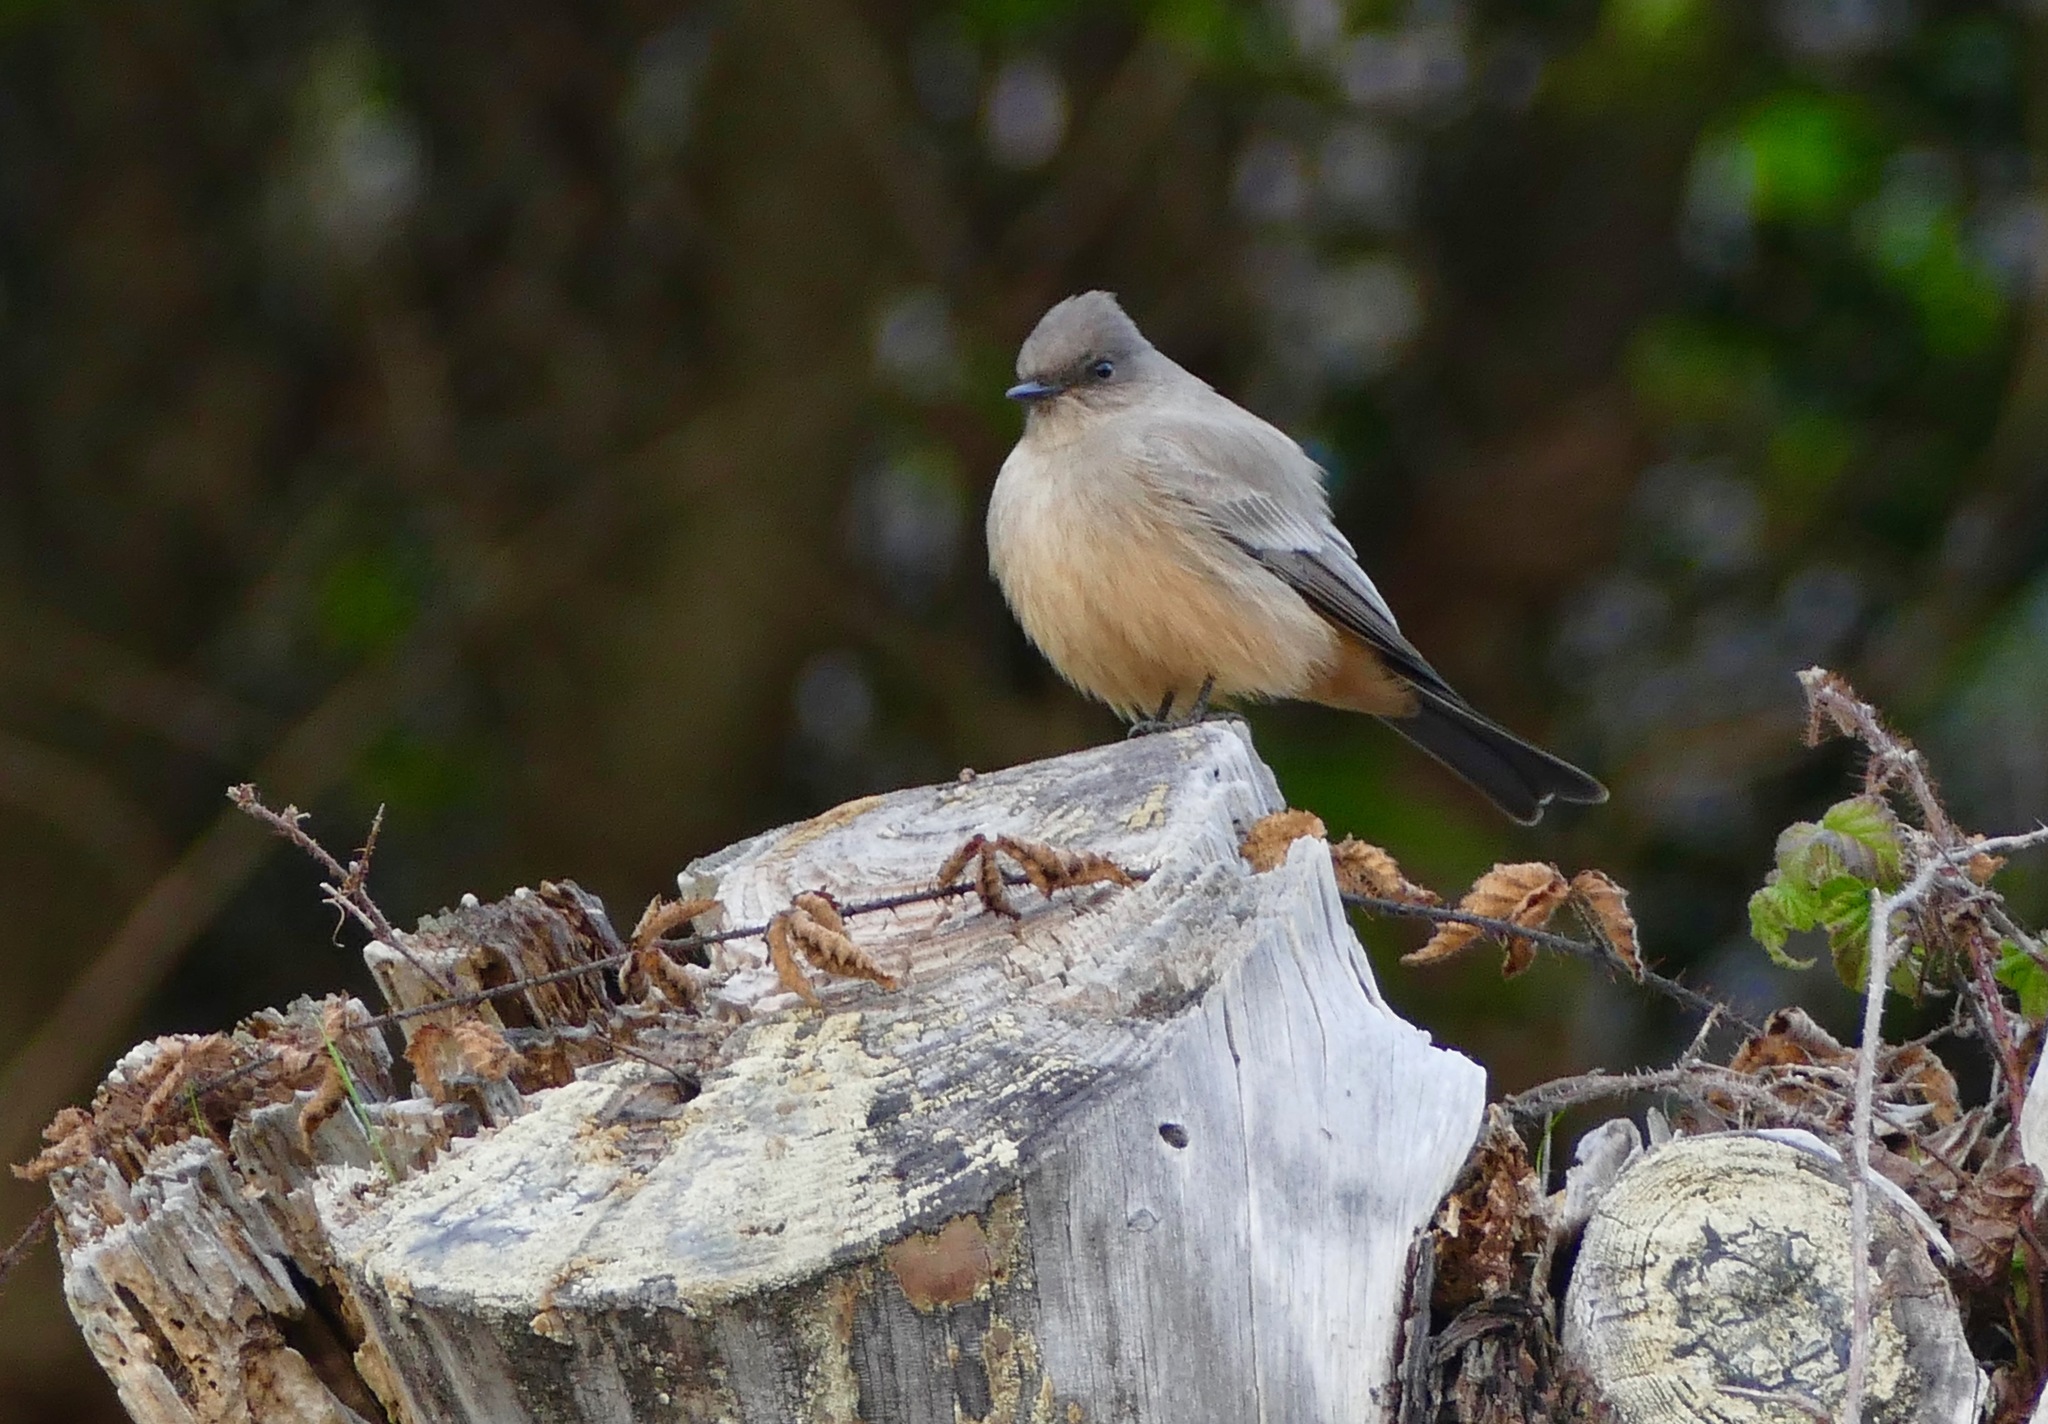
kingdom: Animalia
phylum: Chordata
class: Aves
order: Passeriformes
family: Tyrannidae
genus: Sayornis
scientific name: Sayornis saya
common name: Say's phoebe
